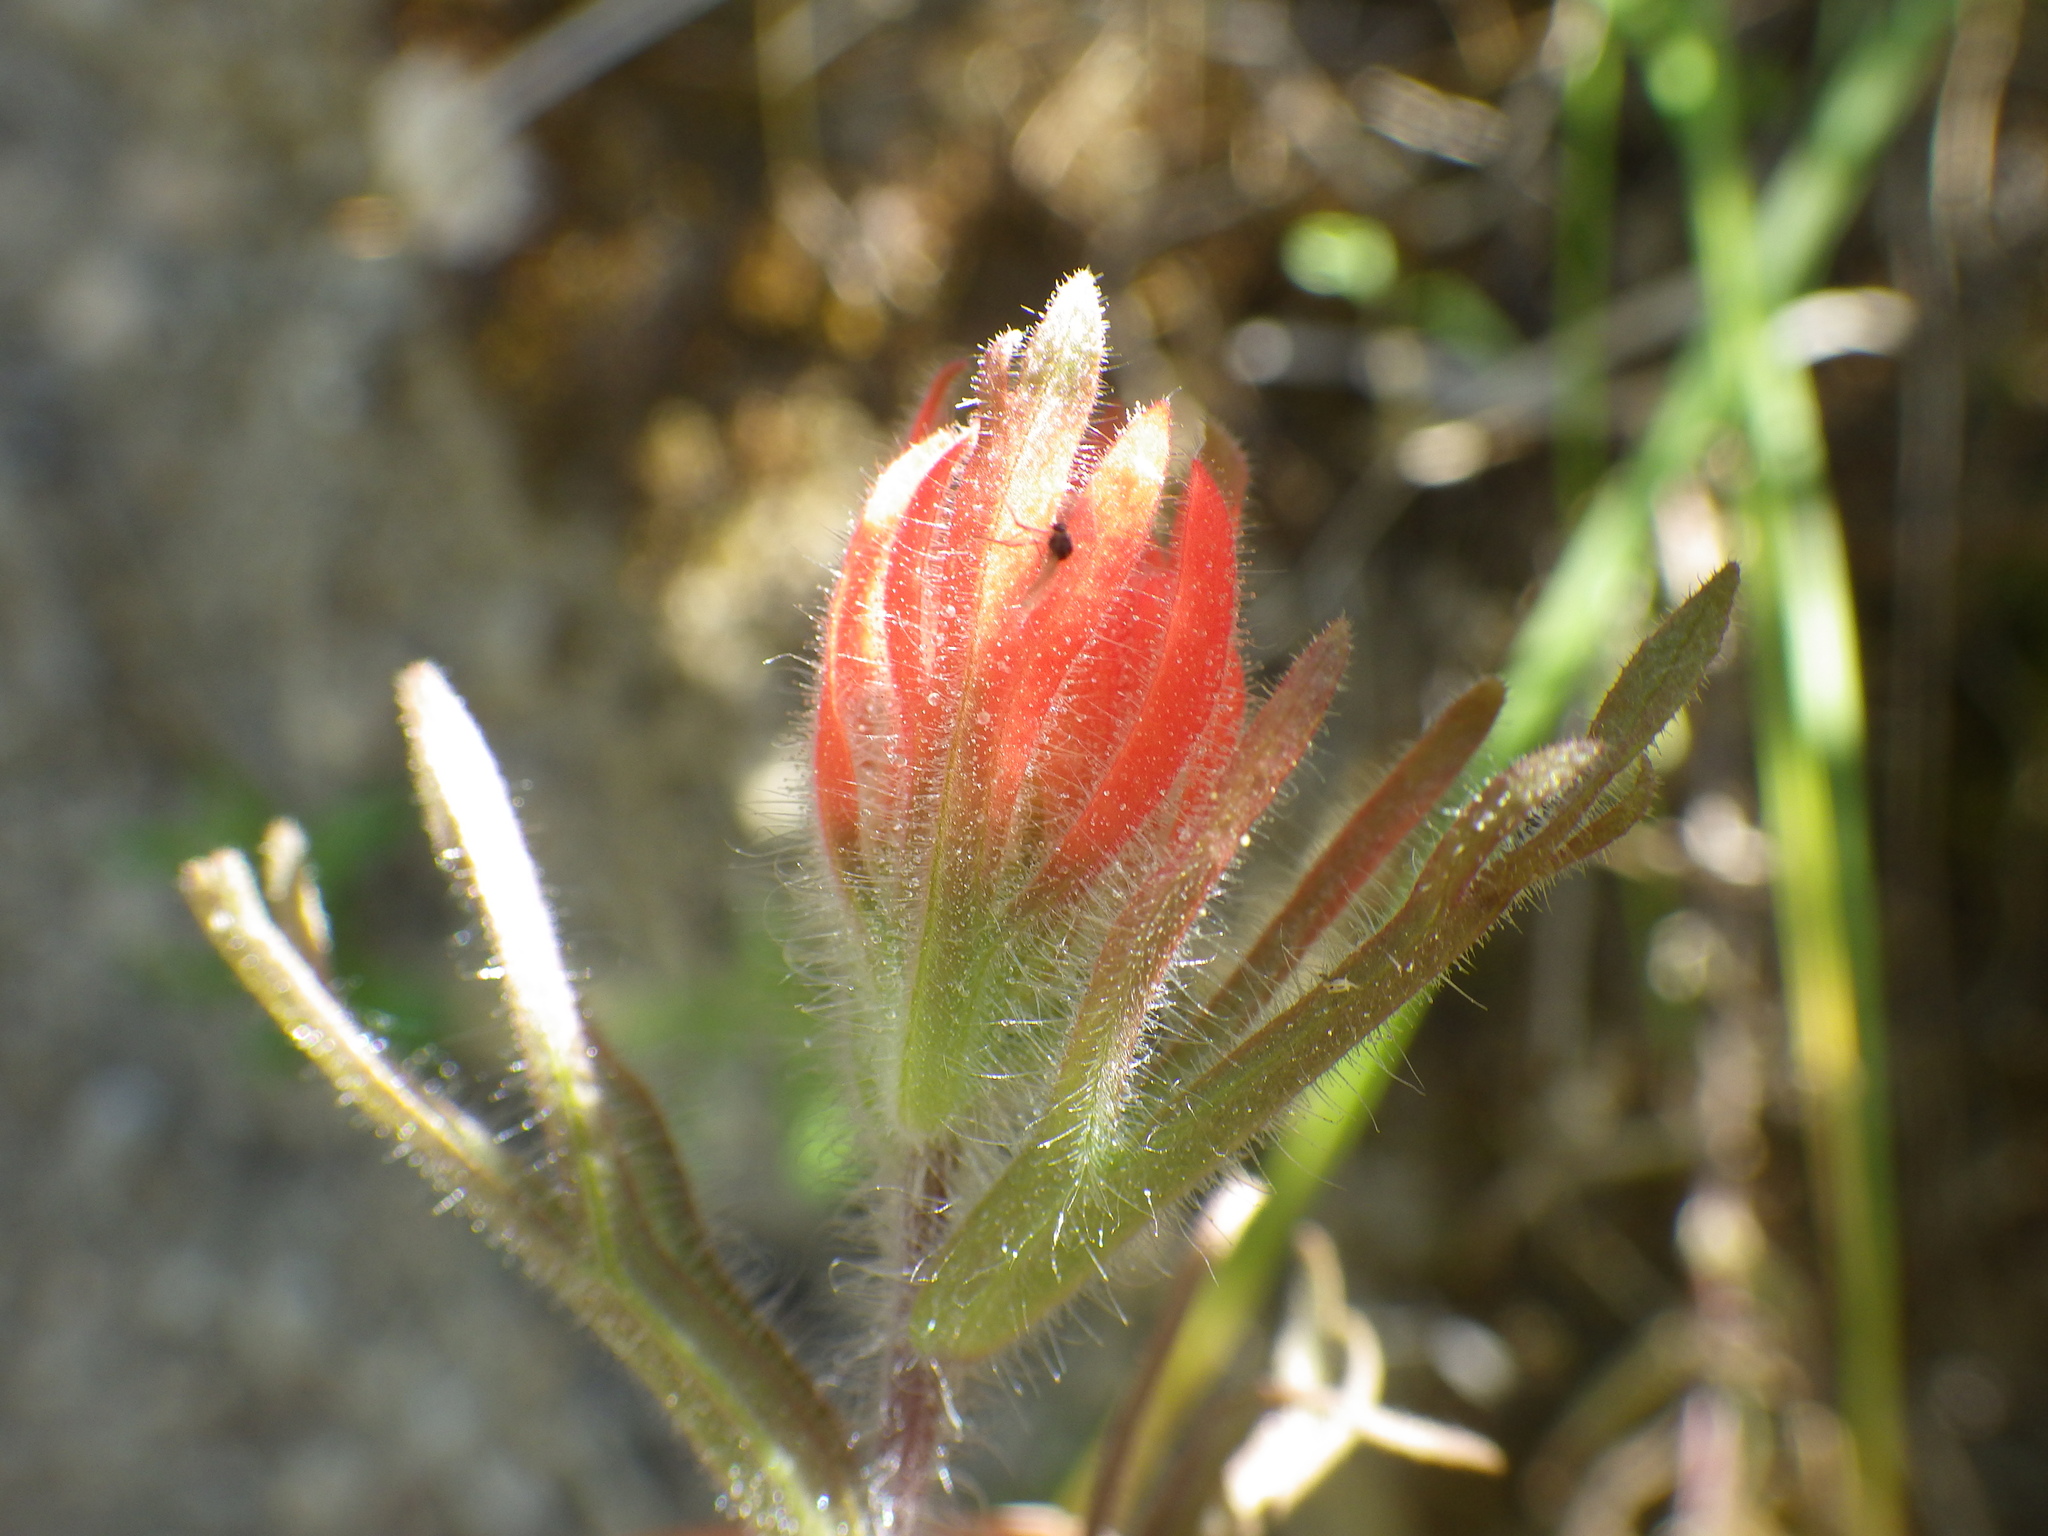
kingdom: Plantae
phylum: Tracheophyta
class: Magnoliopsida
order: Lamiales
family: Orobanchaceae
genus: Castilleja
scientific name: Castilleja affinis
